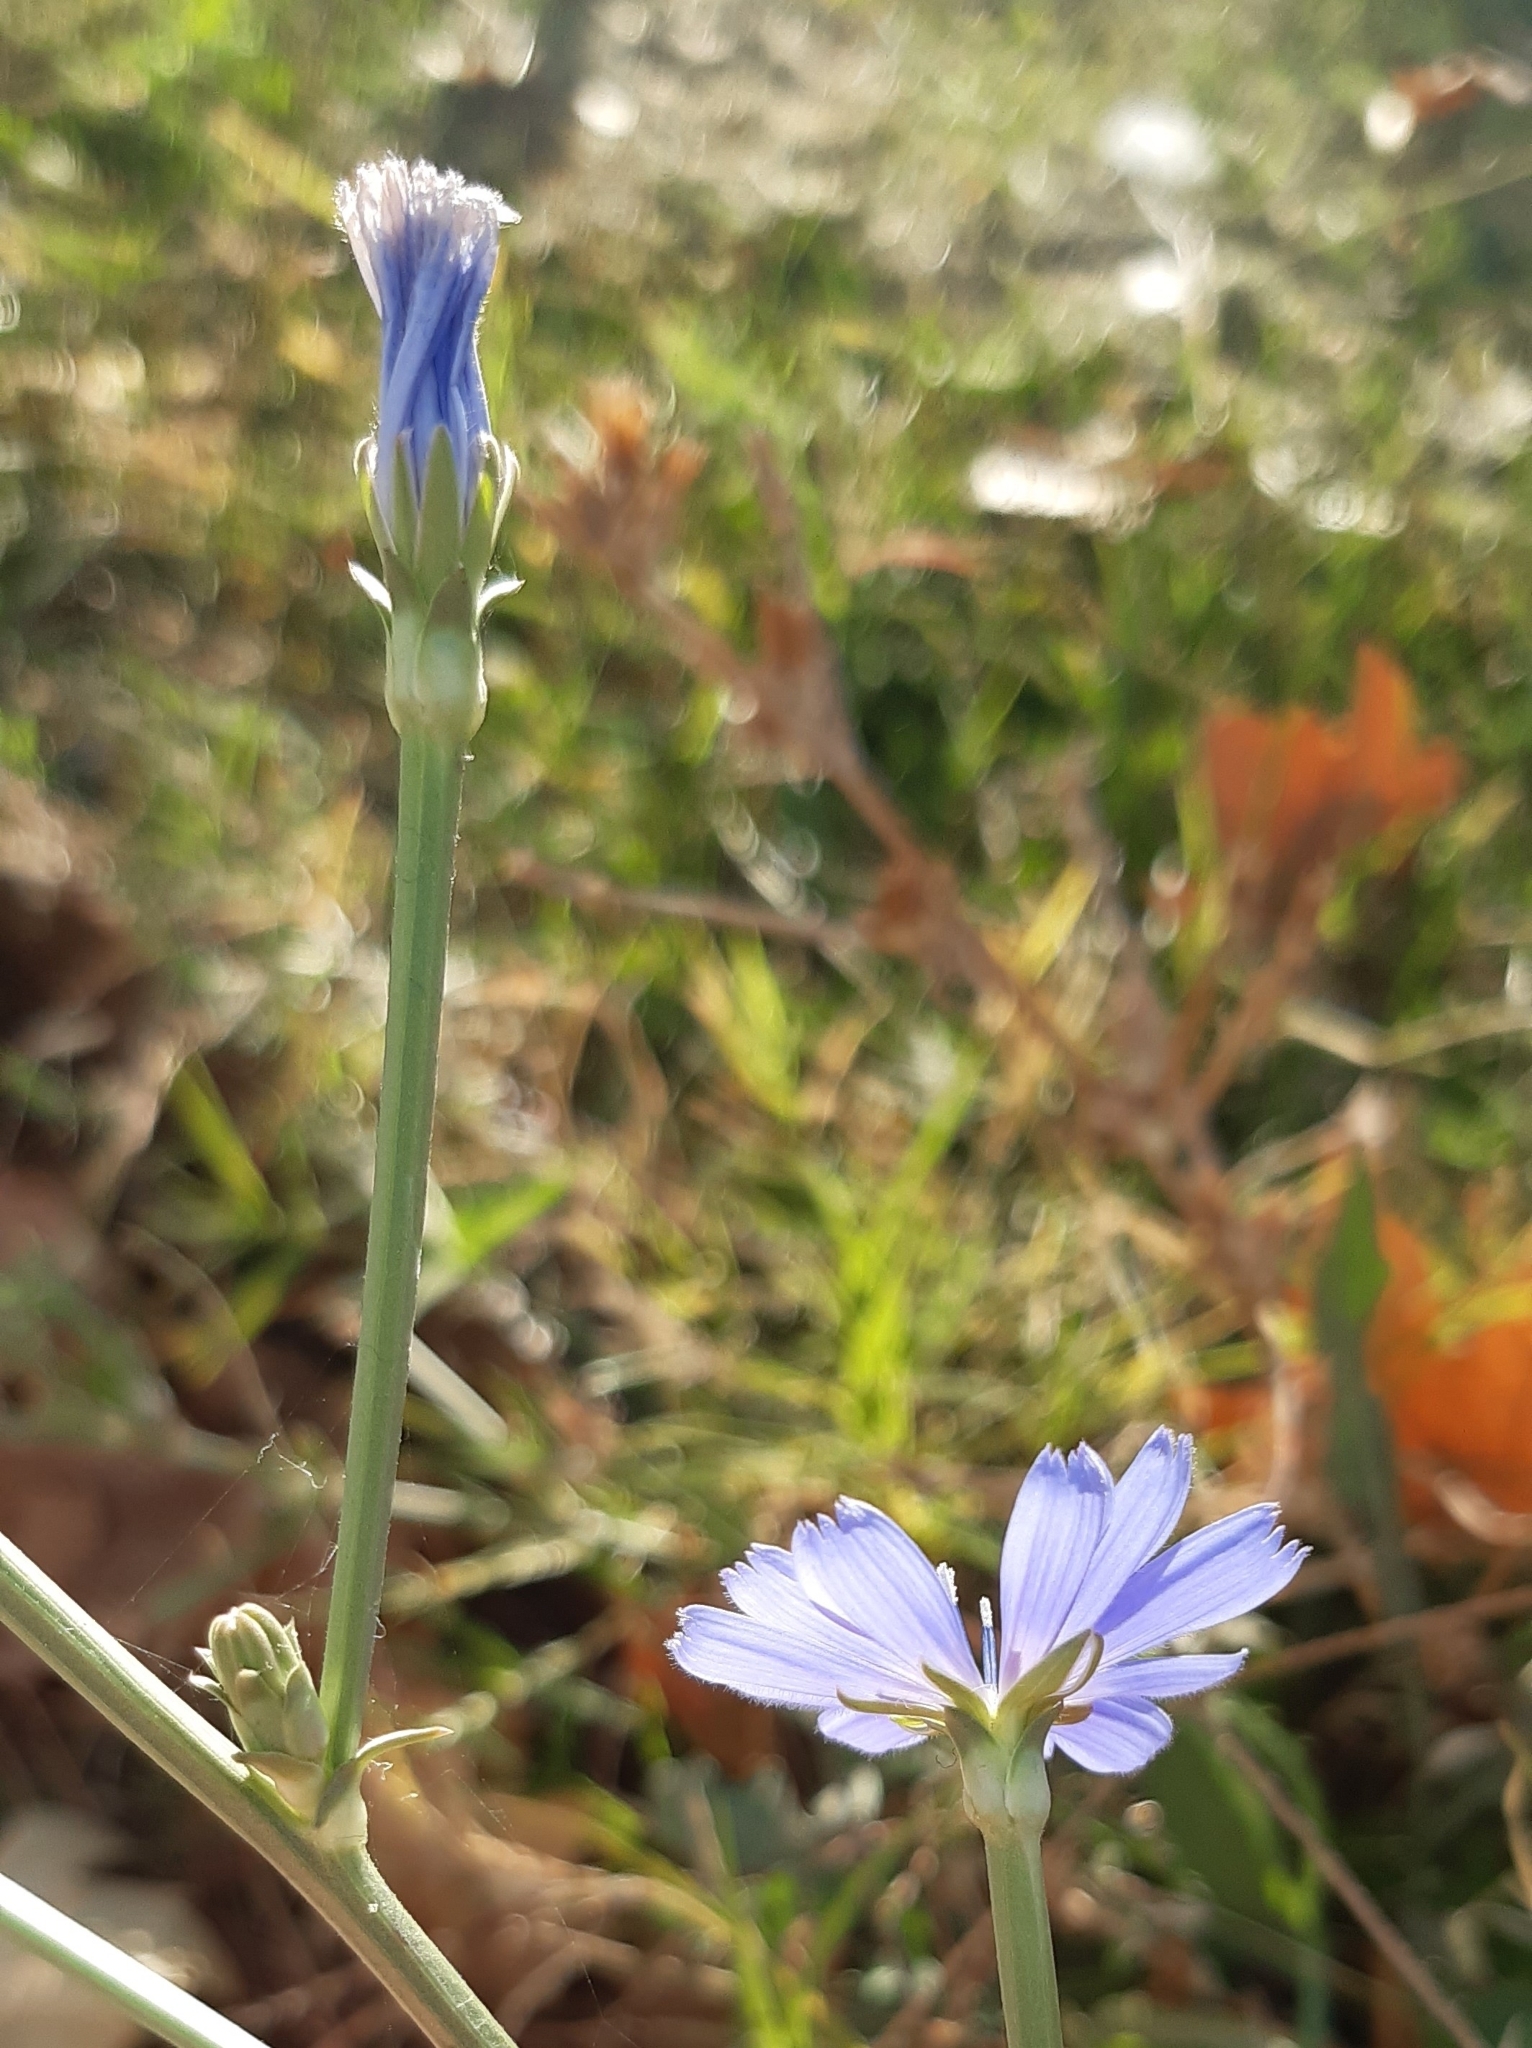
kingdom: Plantae
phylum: Tracheophyta
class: Magnoliopsida
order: Asterales
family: Asteraceae
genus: Cichorium
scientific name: Cichorium intybus
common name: Chicory
